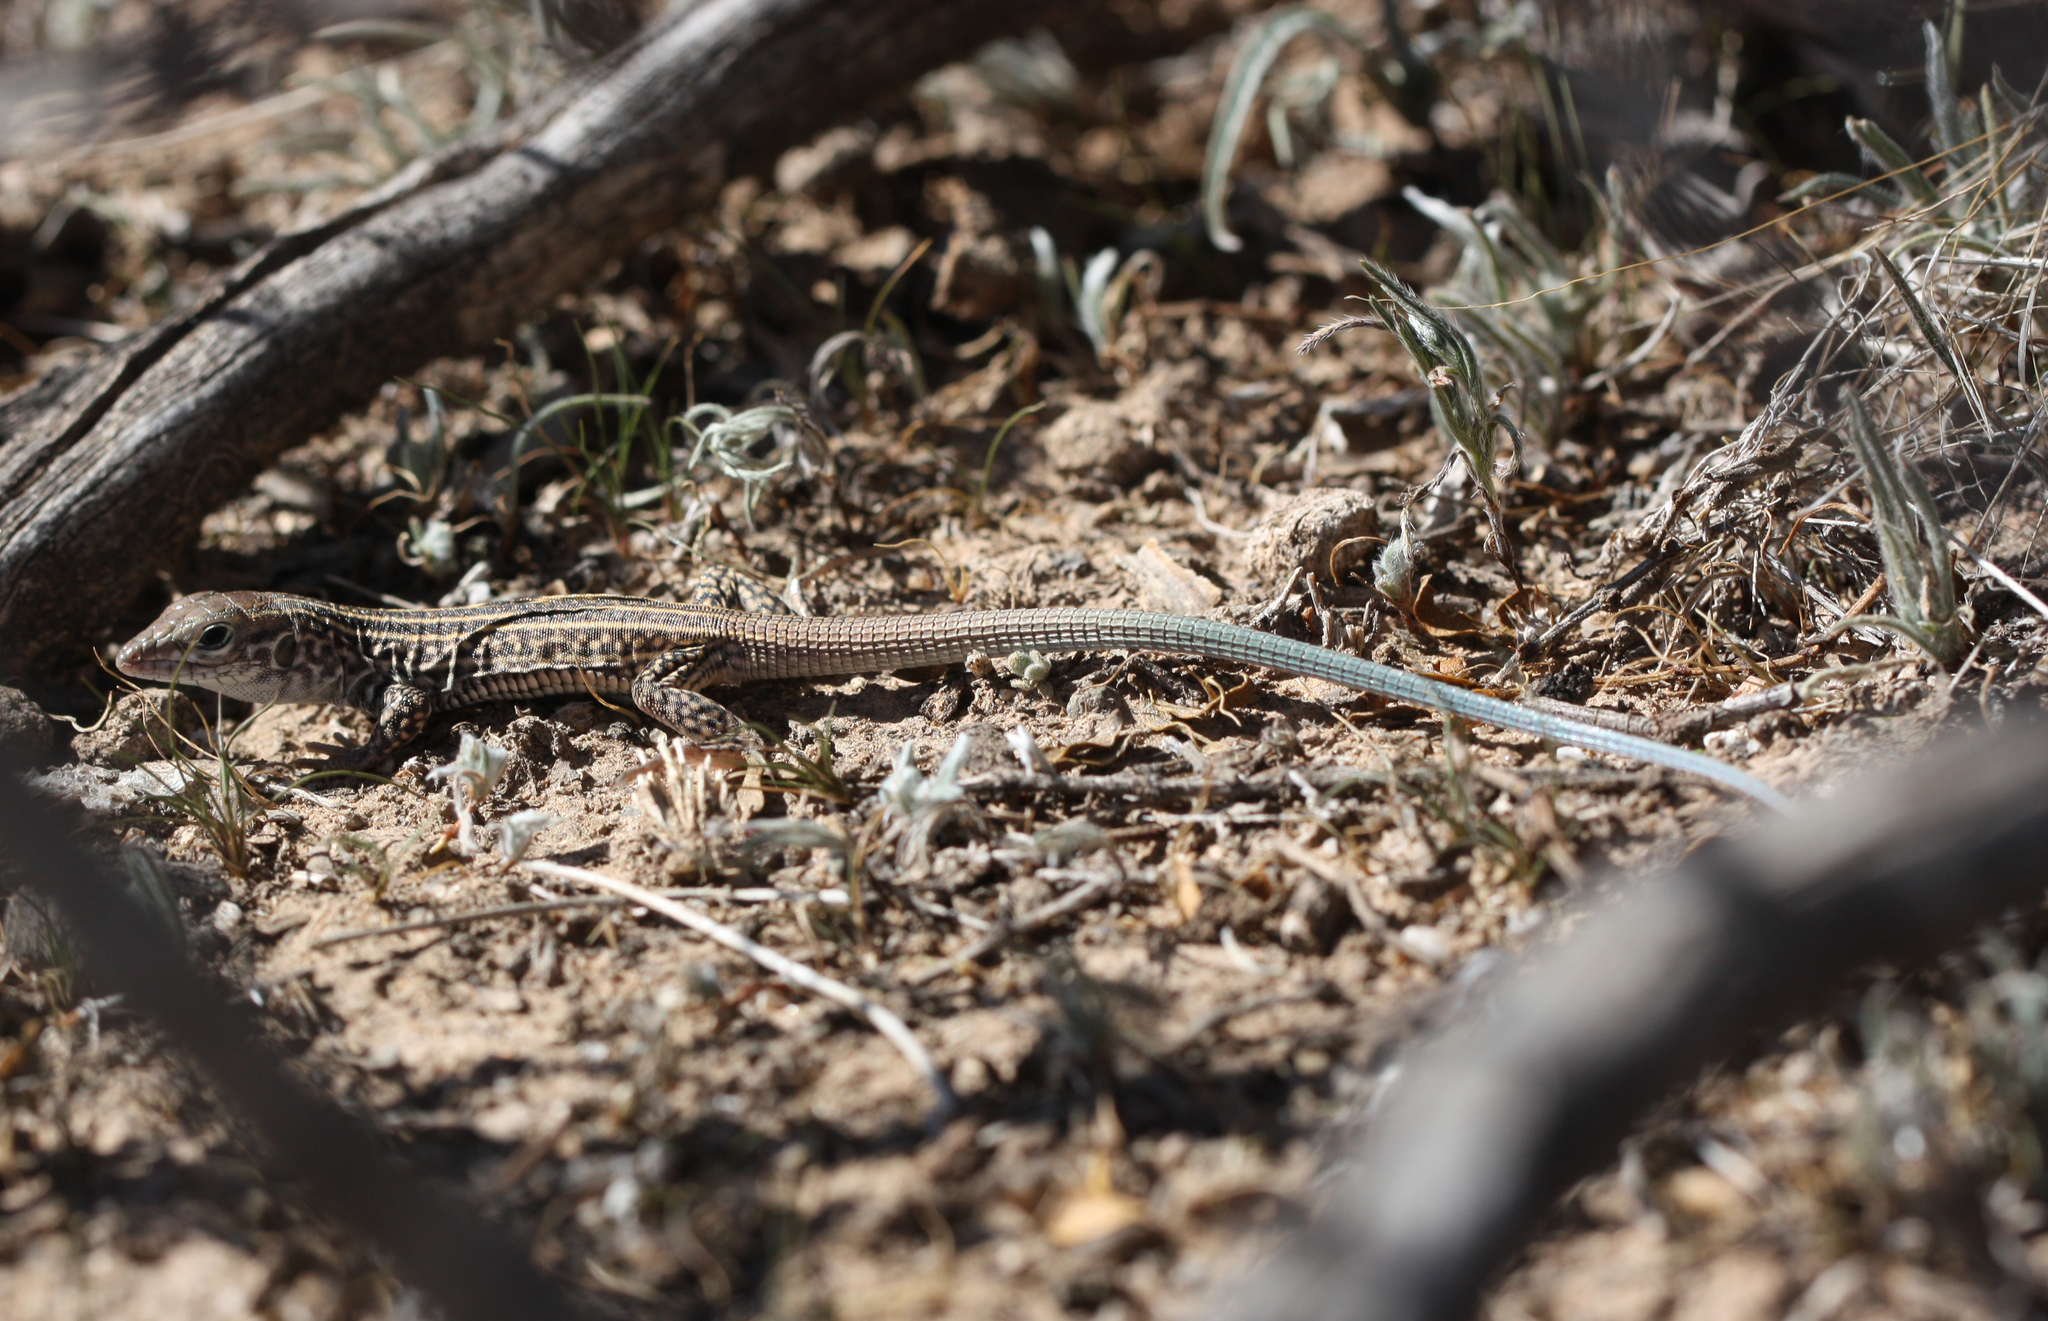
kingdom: Animalia
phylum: Chordata
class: Squamata
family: Teiidae
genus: Aspidoscelis
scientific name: Aspidoscelis tigris
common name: Tiger whiptail
